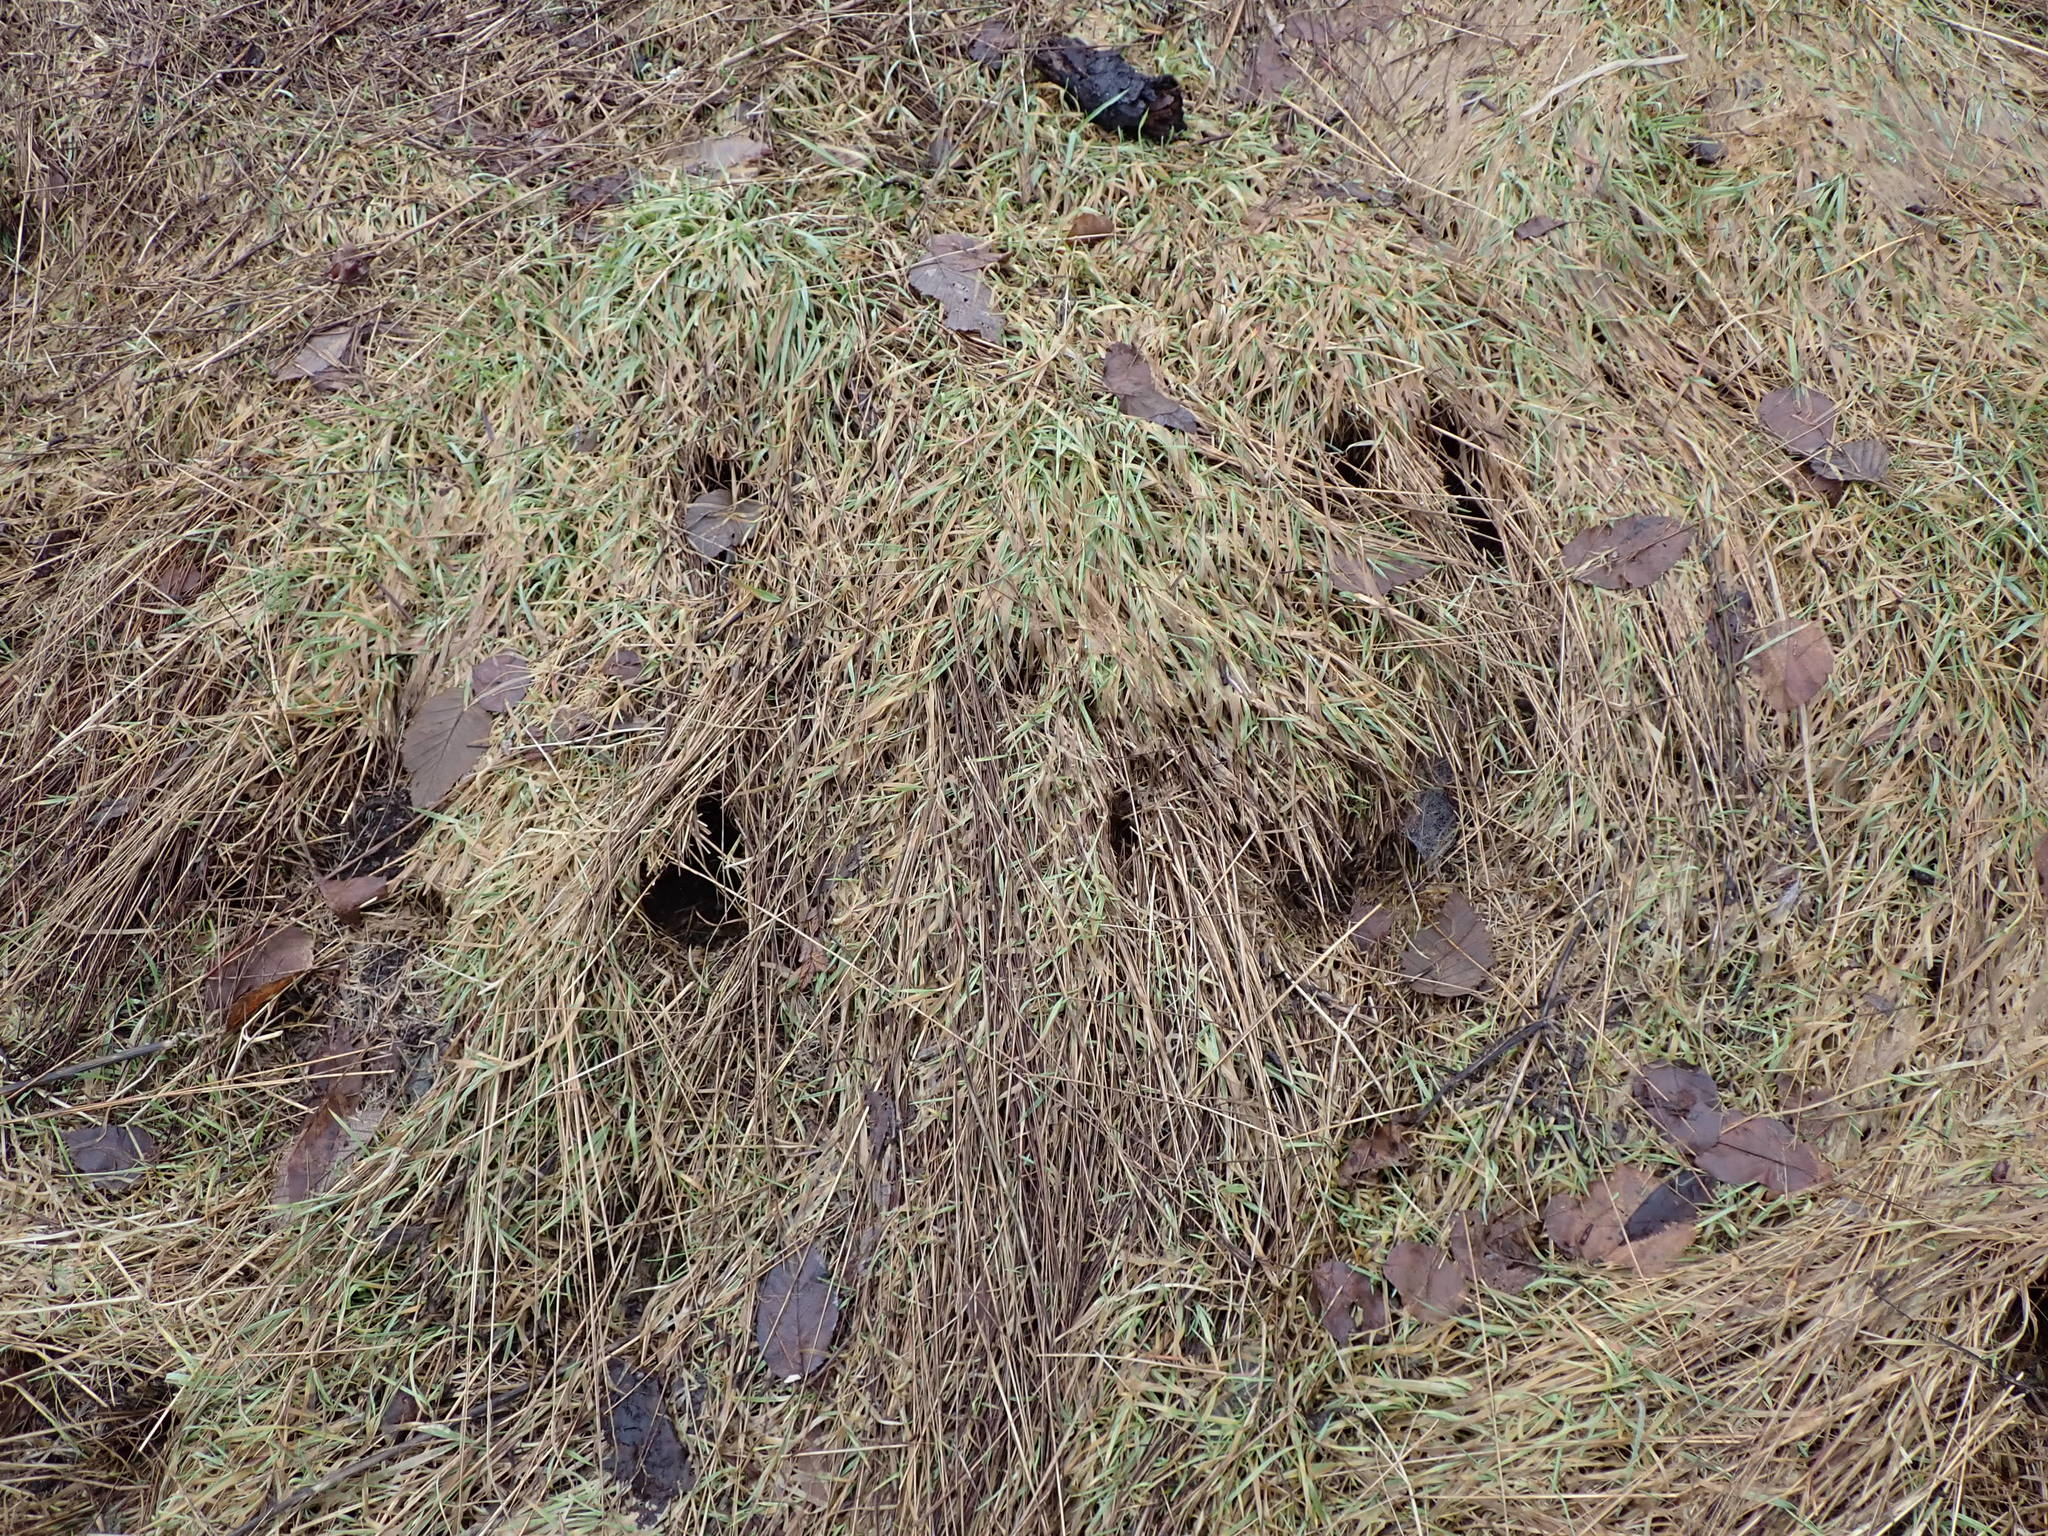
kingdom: Animalia
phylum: Chordata
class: Mammalia
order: Rodentia
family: Cricetidae
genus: Microtus
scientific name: Microtus townsendii
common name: Townsend's vole
